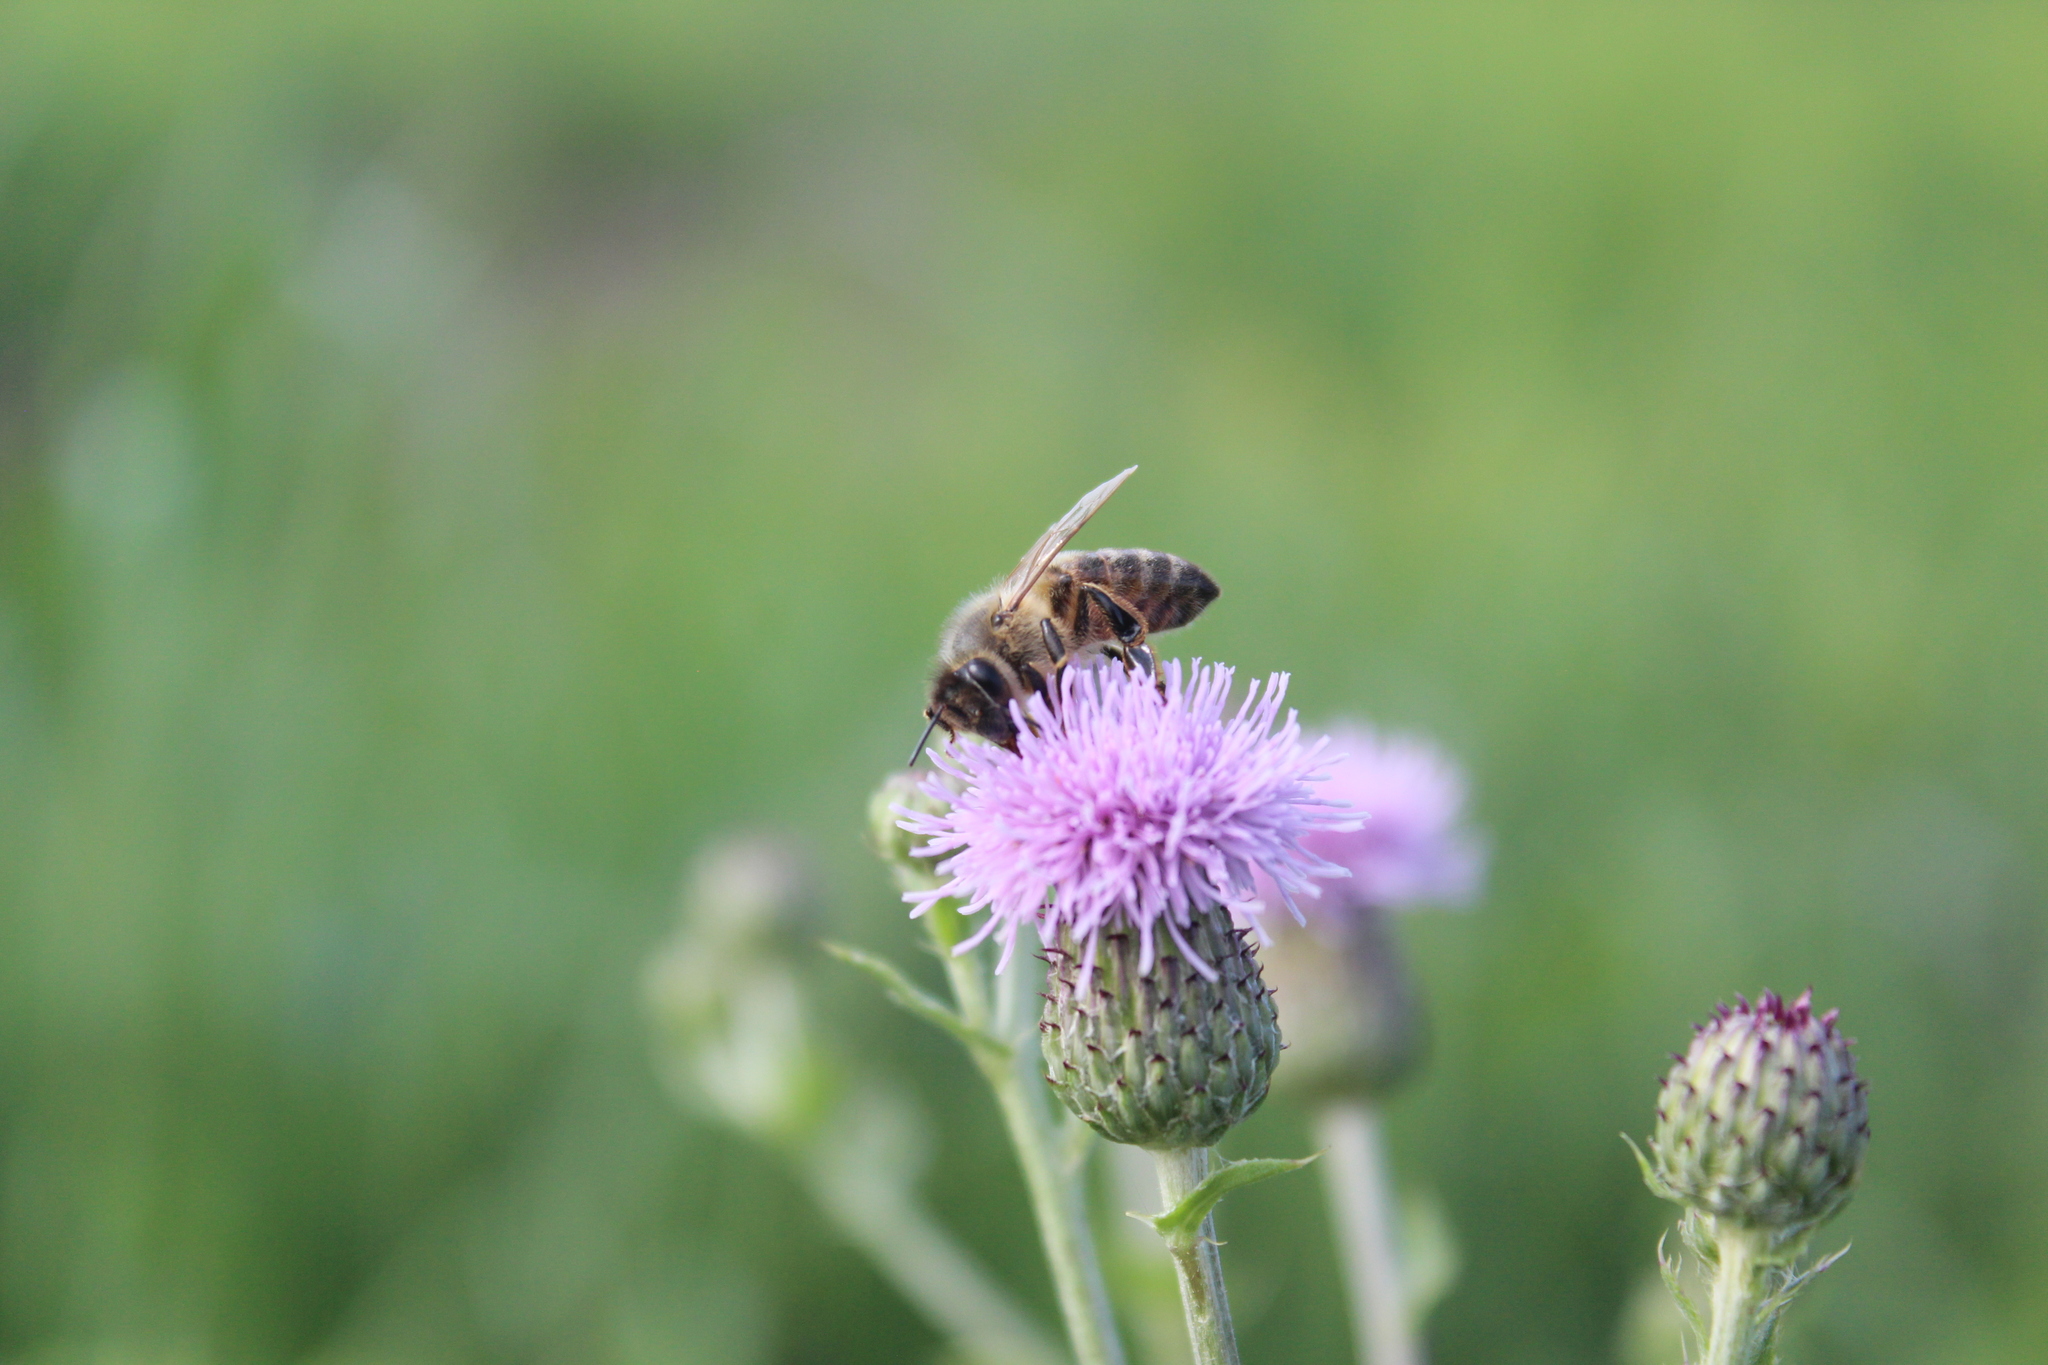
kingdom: Animalia
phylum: Arthropoda
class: Insecta
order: Hymenoptera
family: Apidae
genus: Apis
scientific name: Apis mellifera
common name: Honey bee
